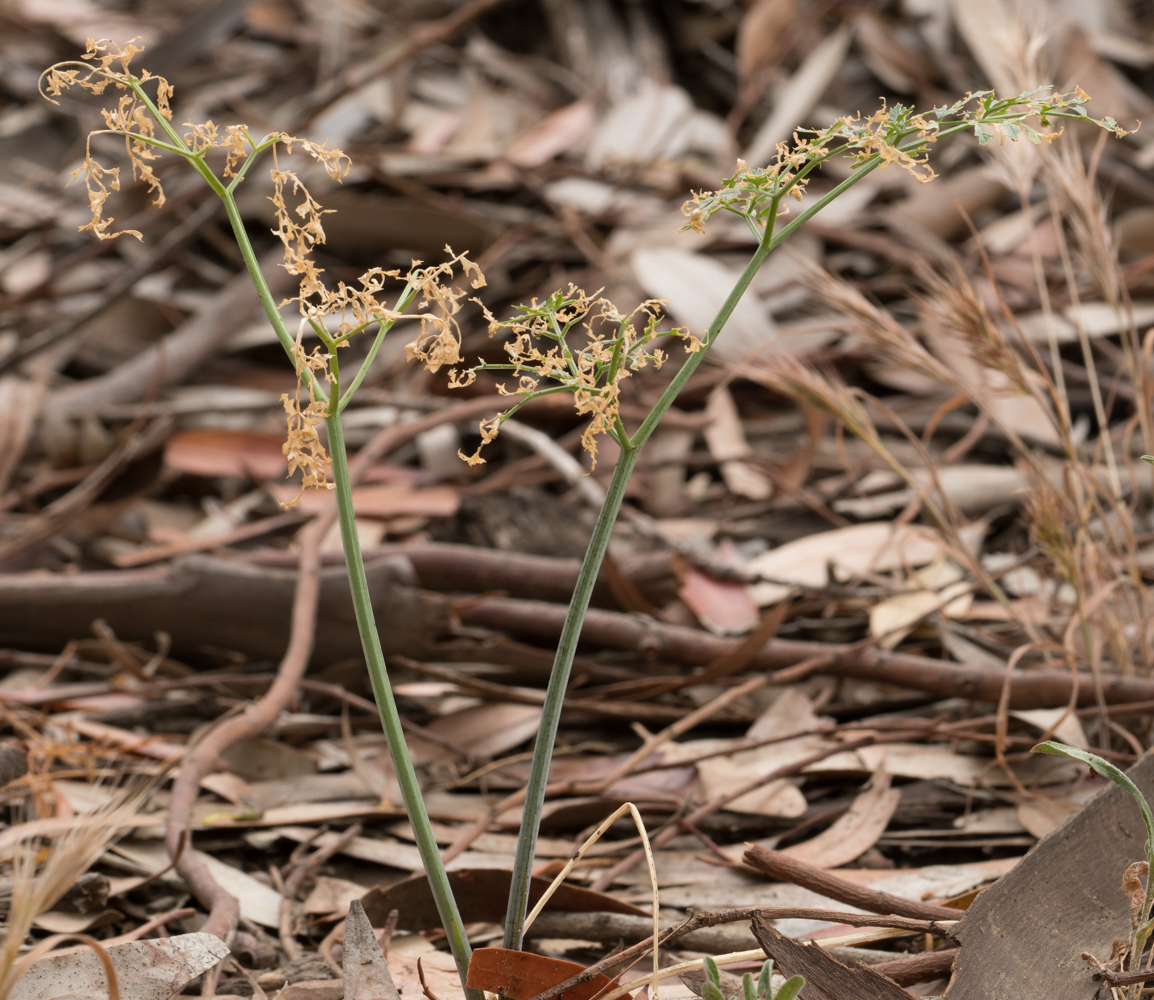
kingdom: Plantae
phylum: Tracheophyta
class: Magnoliopsida
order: Apiales
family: Apiaceae
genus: Conium
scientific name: Conium maculatum
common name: Hemlock
